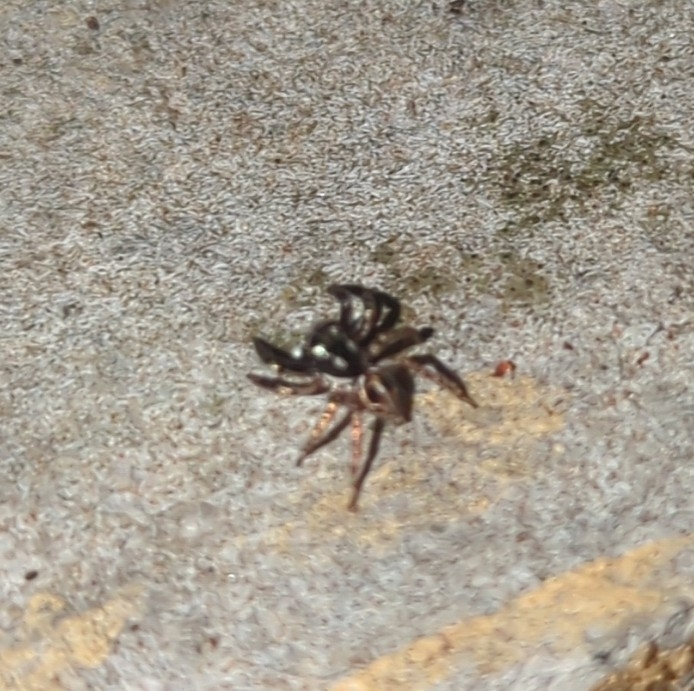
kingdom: Animalia
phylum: Arthropoda
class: Arachnida
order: Araneae
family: Salticidae
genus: Anasaitis
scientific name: Anasaitis canosa
